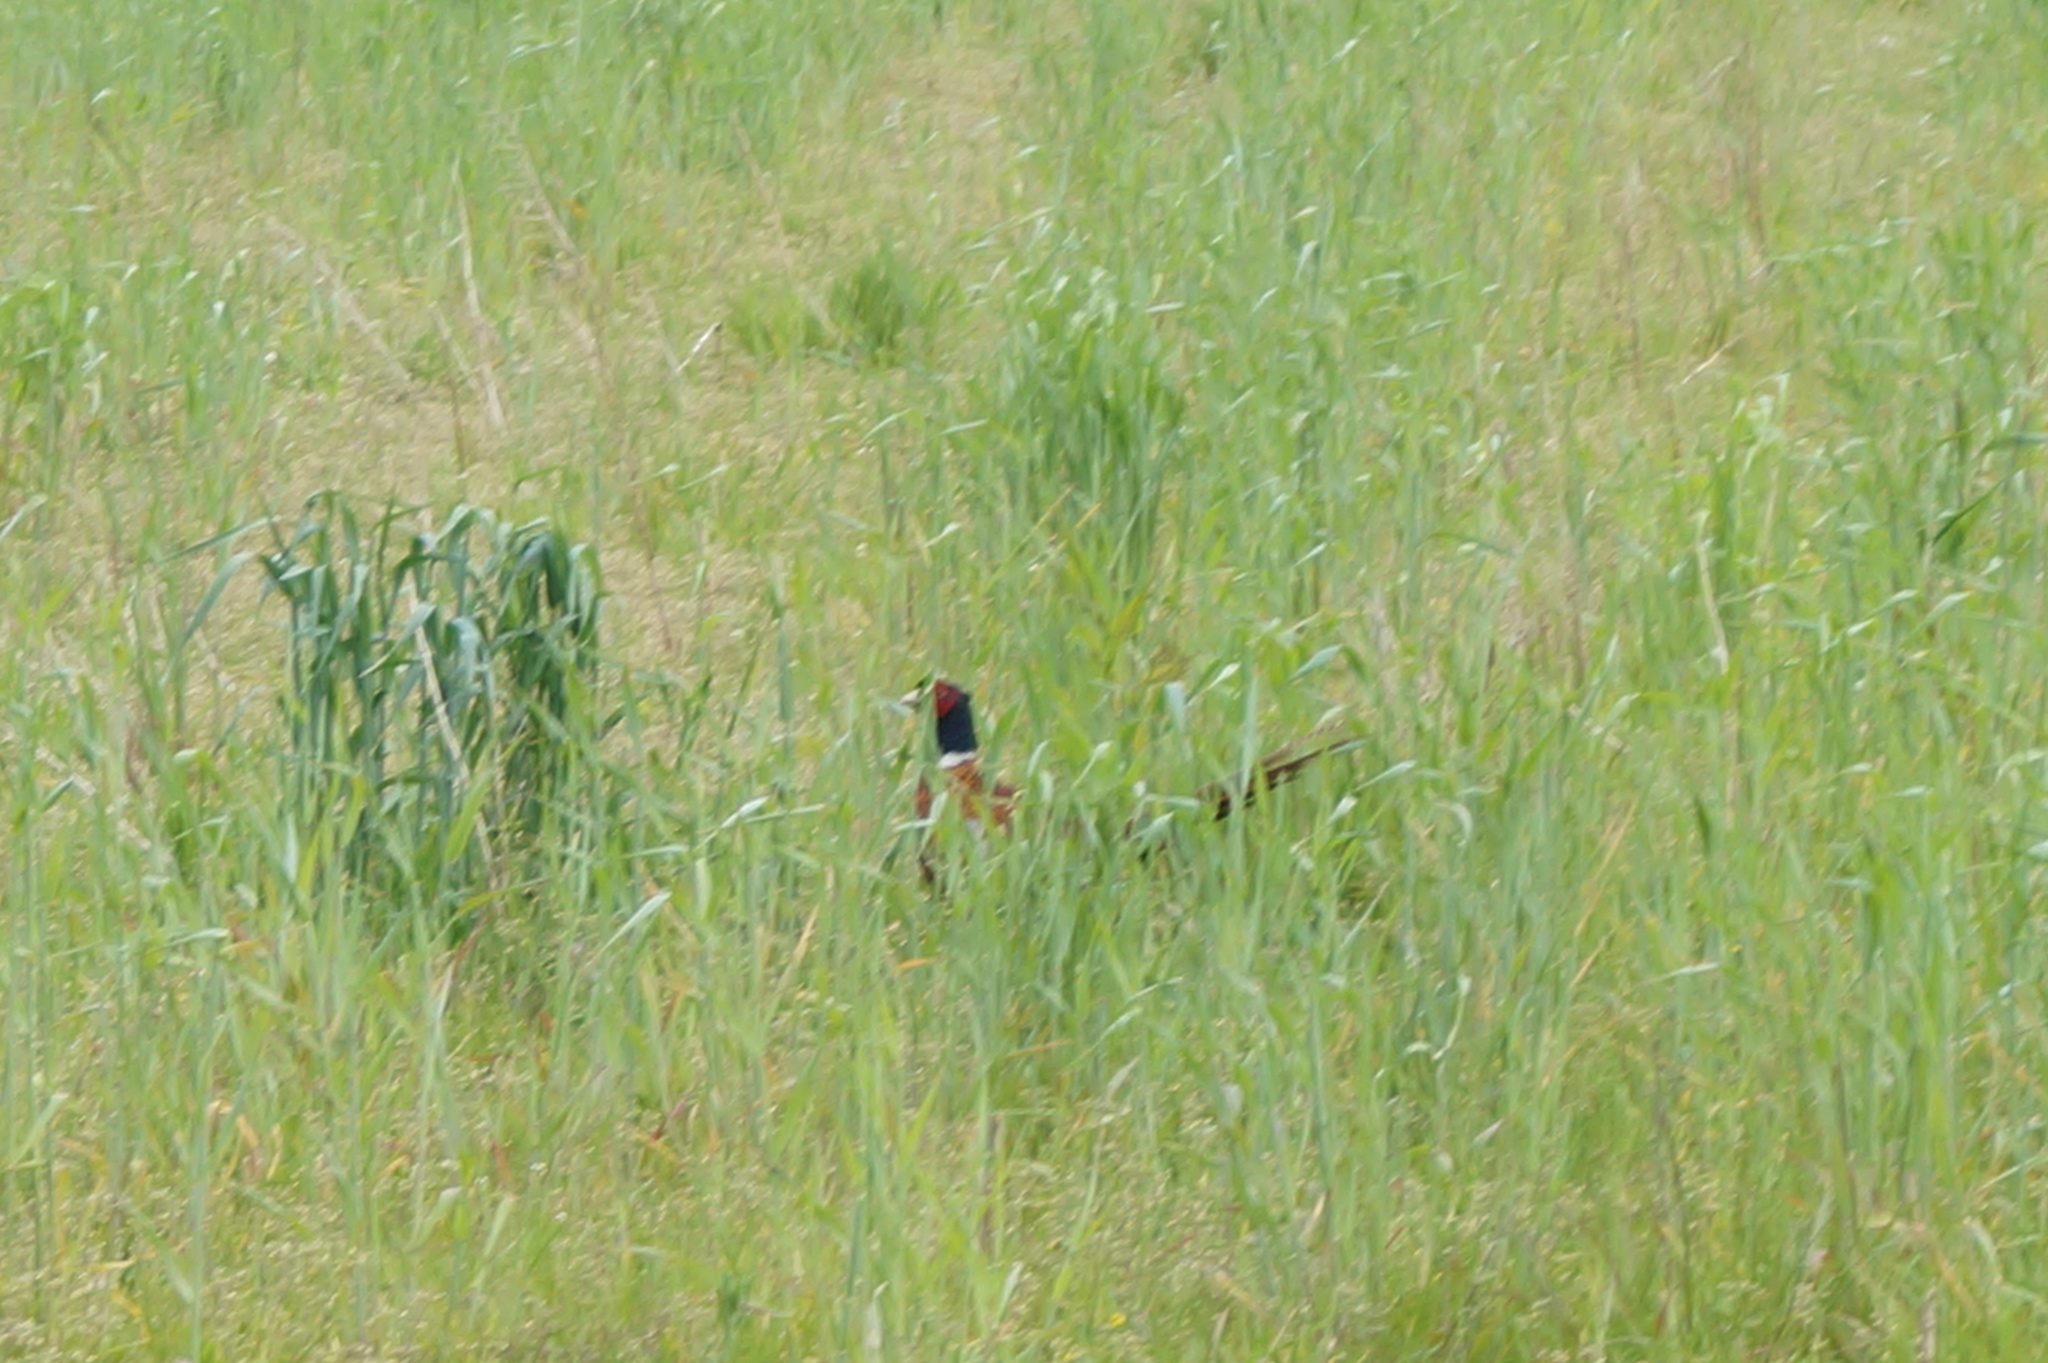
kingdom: Animalia
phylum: Chordata
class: Aves
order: Galliformes
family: Phasianidae
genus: Phasianus
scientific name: Phasianus colchicus
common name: Common pheasant
